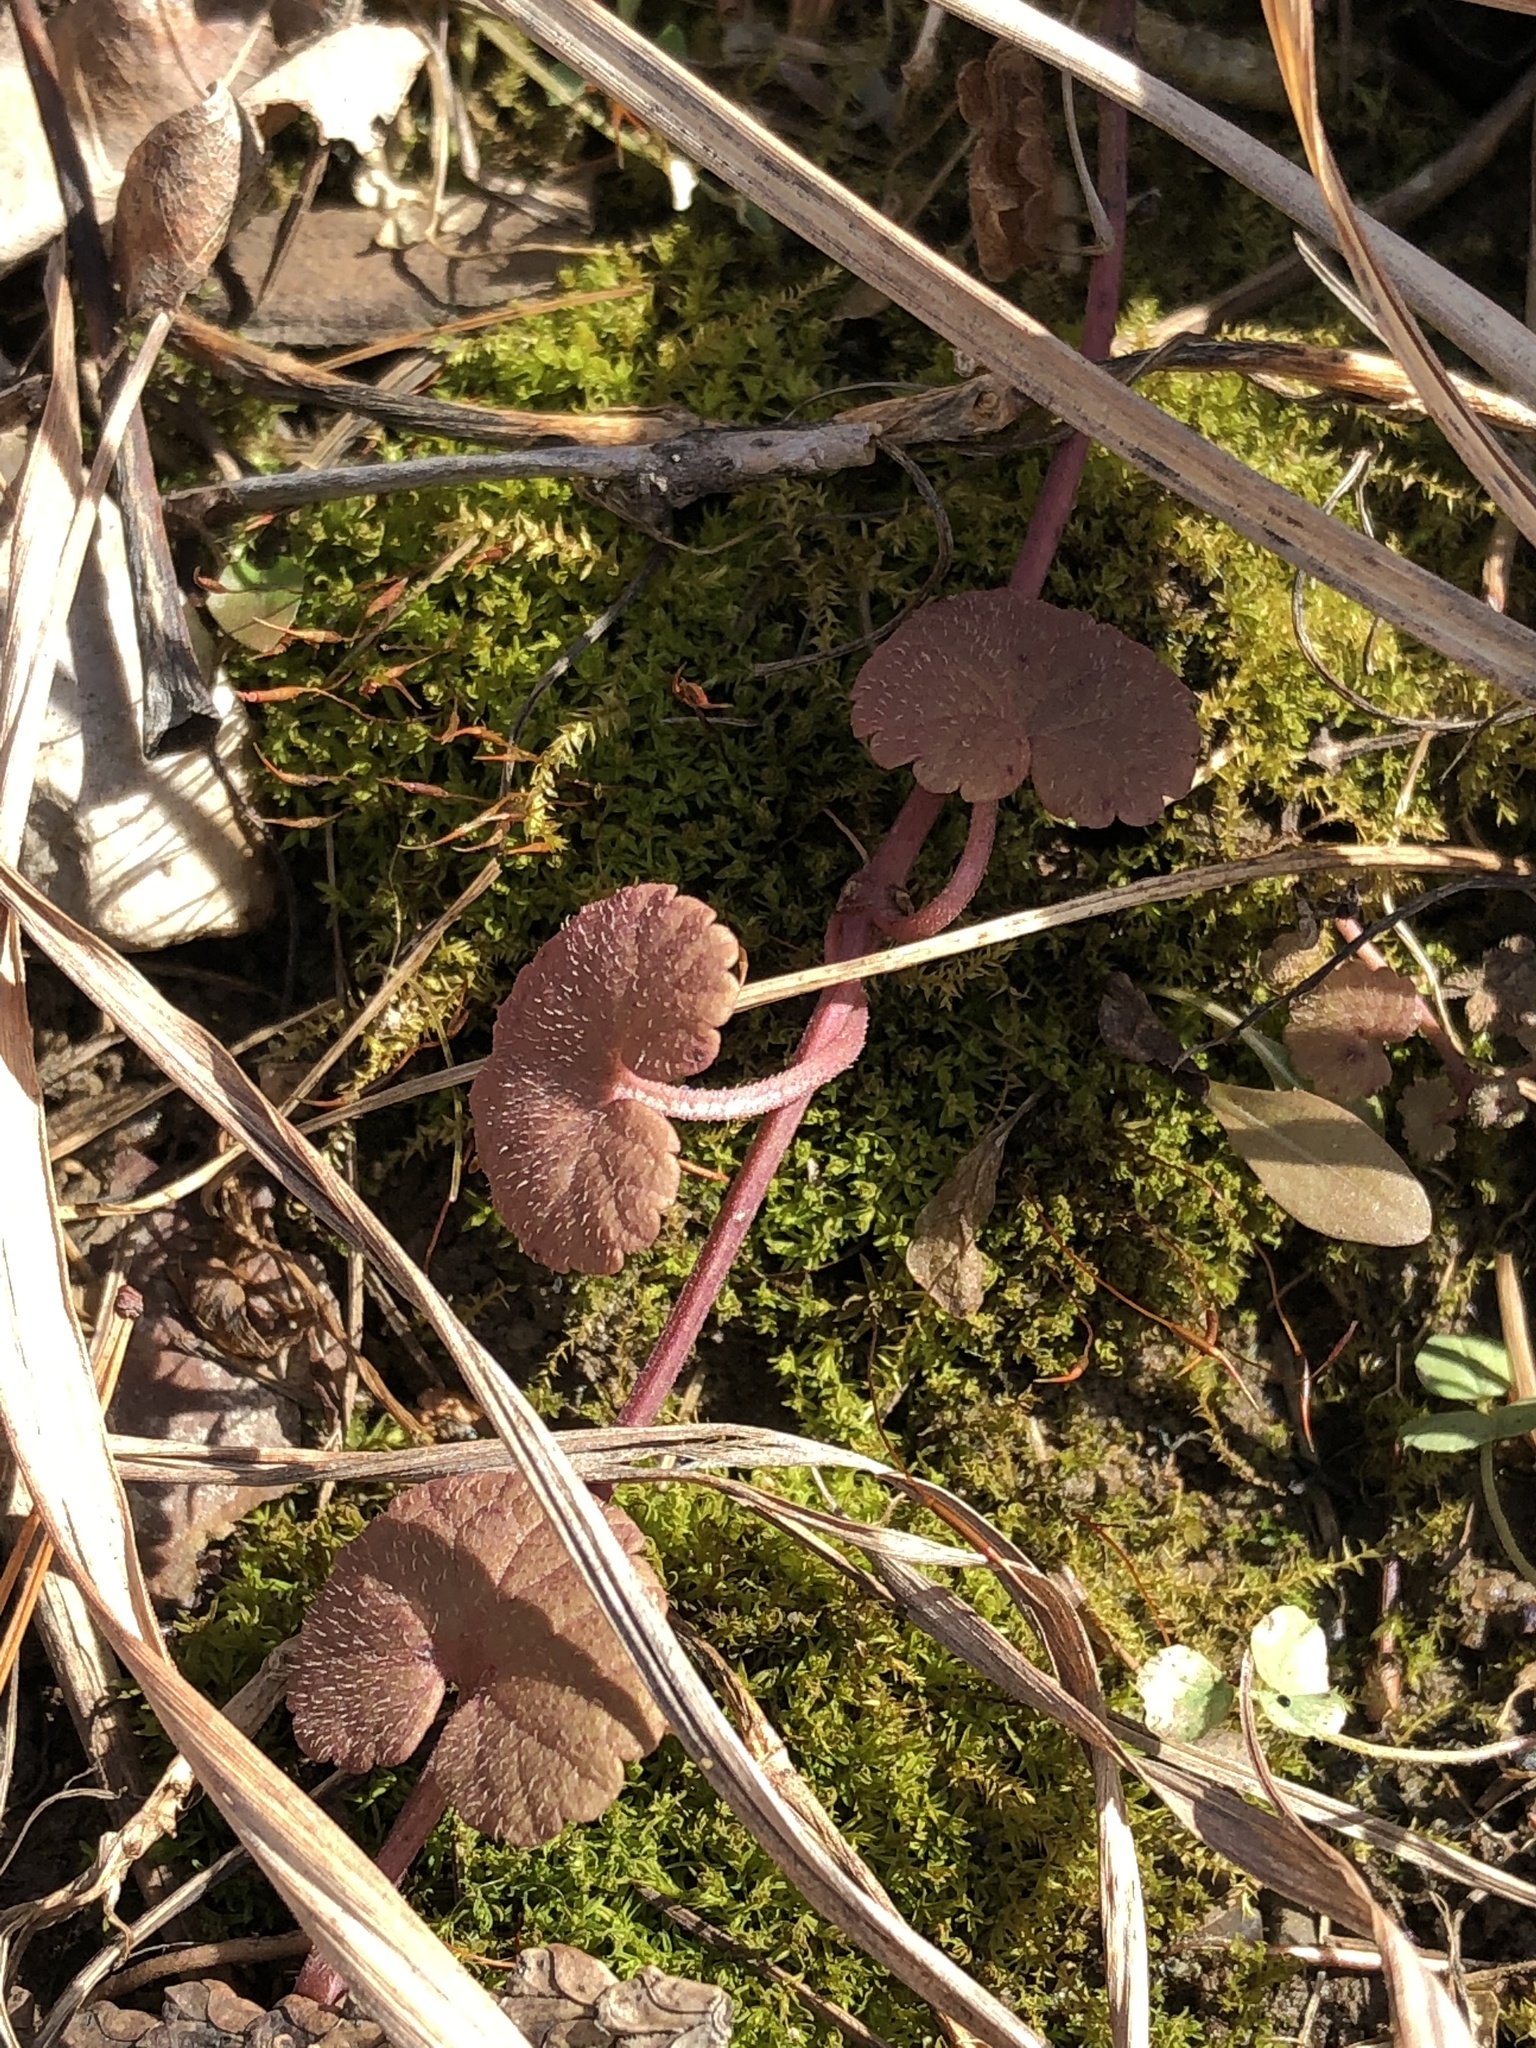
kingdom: Plantae
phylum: Tracheophyta
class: Magnoliopsida
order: Lamiales
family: Lamiaceae
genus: Glechoma
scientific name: Glechoma hederacea
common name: Ground ivy
